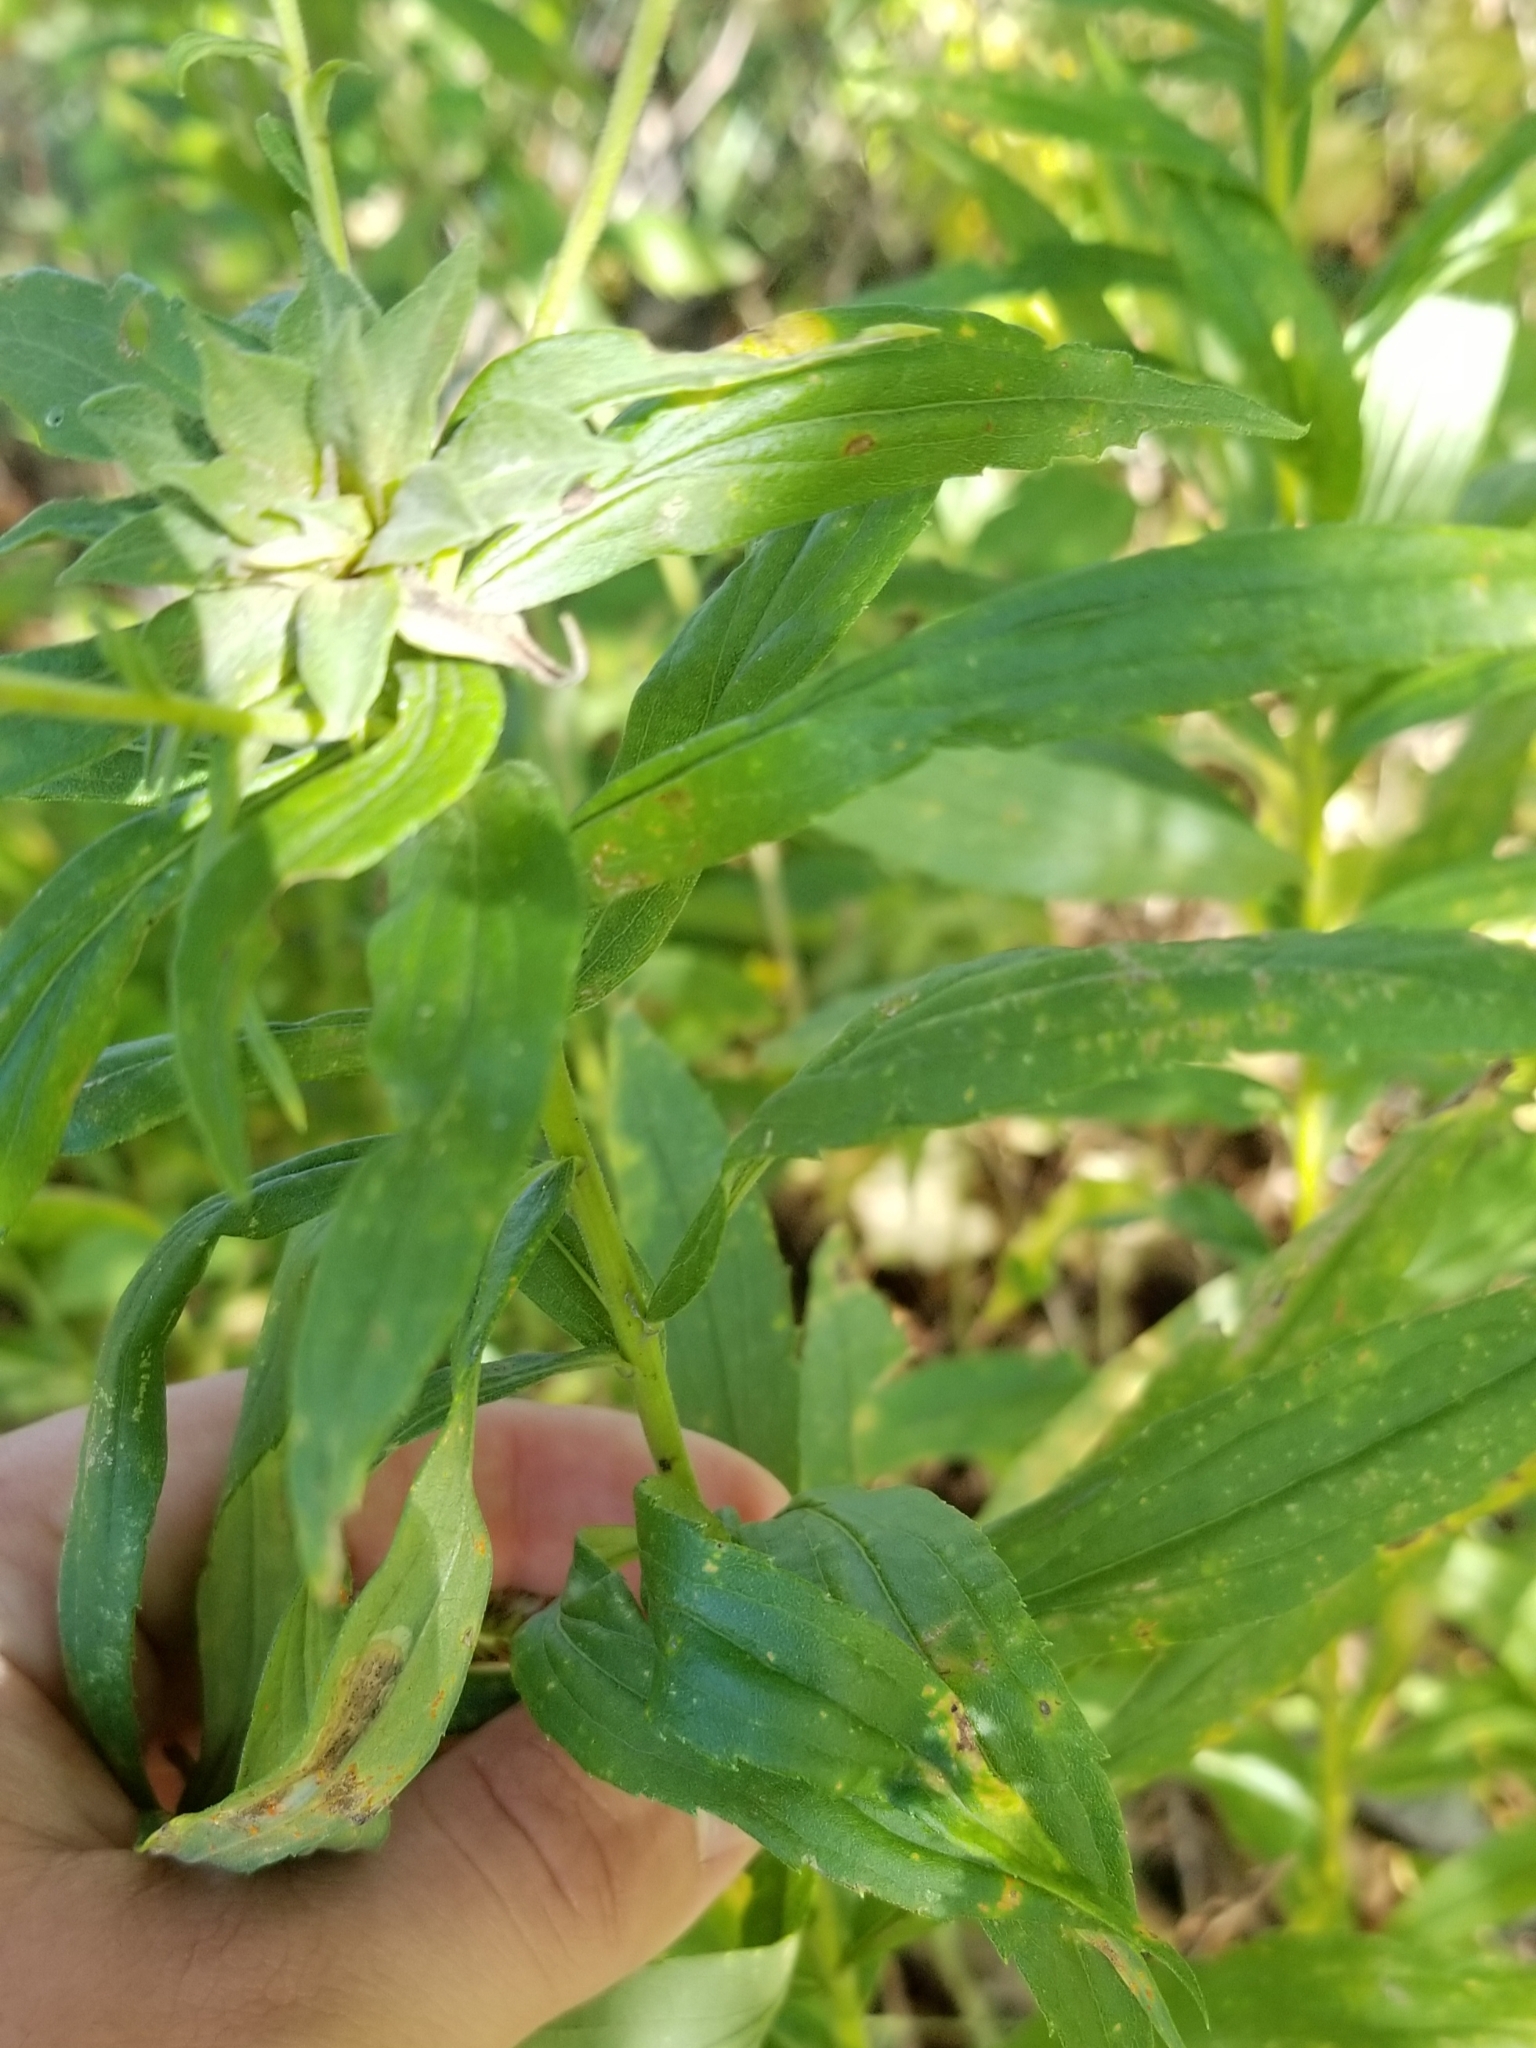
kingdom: Animalia
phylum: Arthropoda
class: Insecta
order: Diptera
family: Cecidomyiidae
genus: Asphondylia
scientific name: Asphondylia solidaginis
